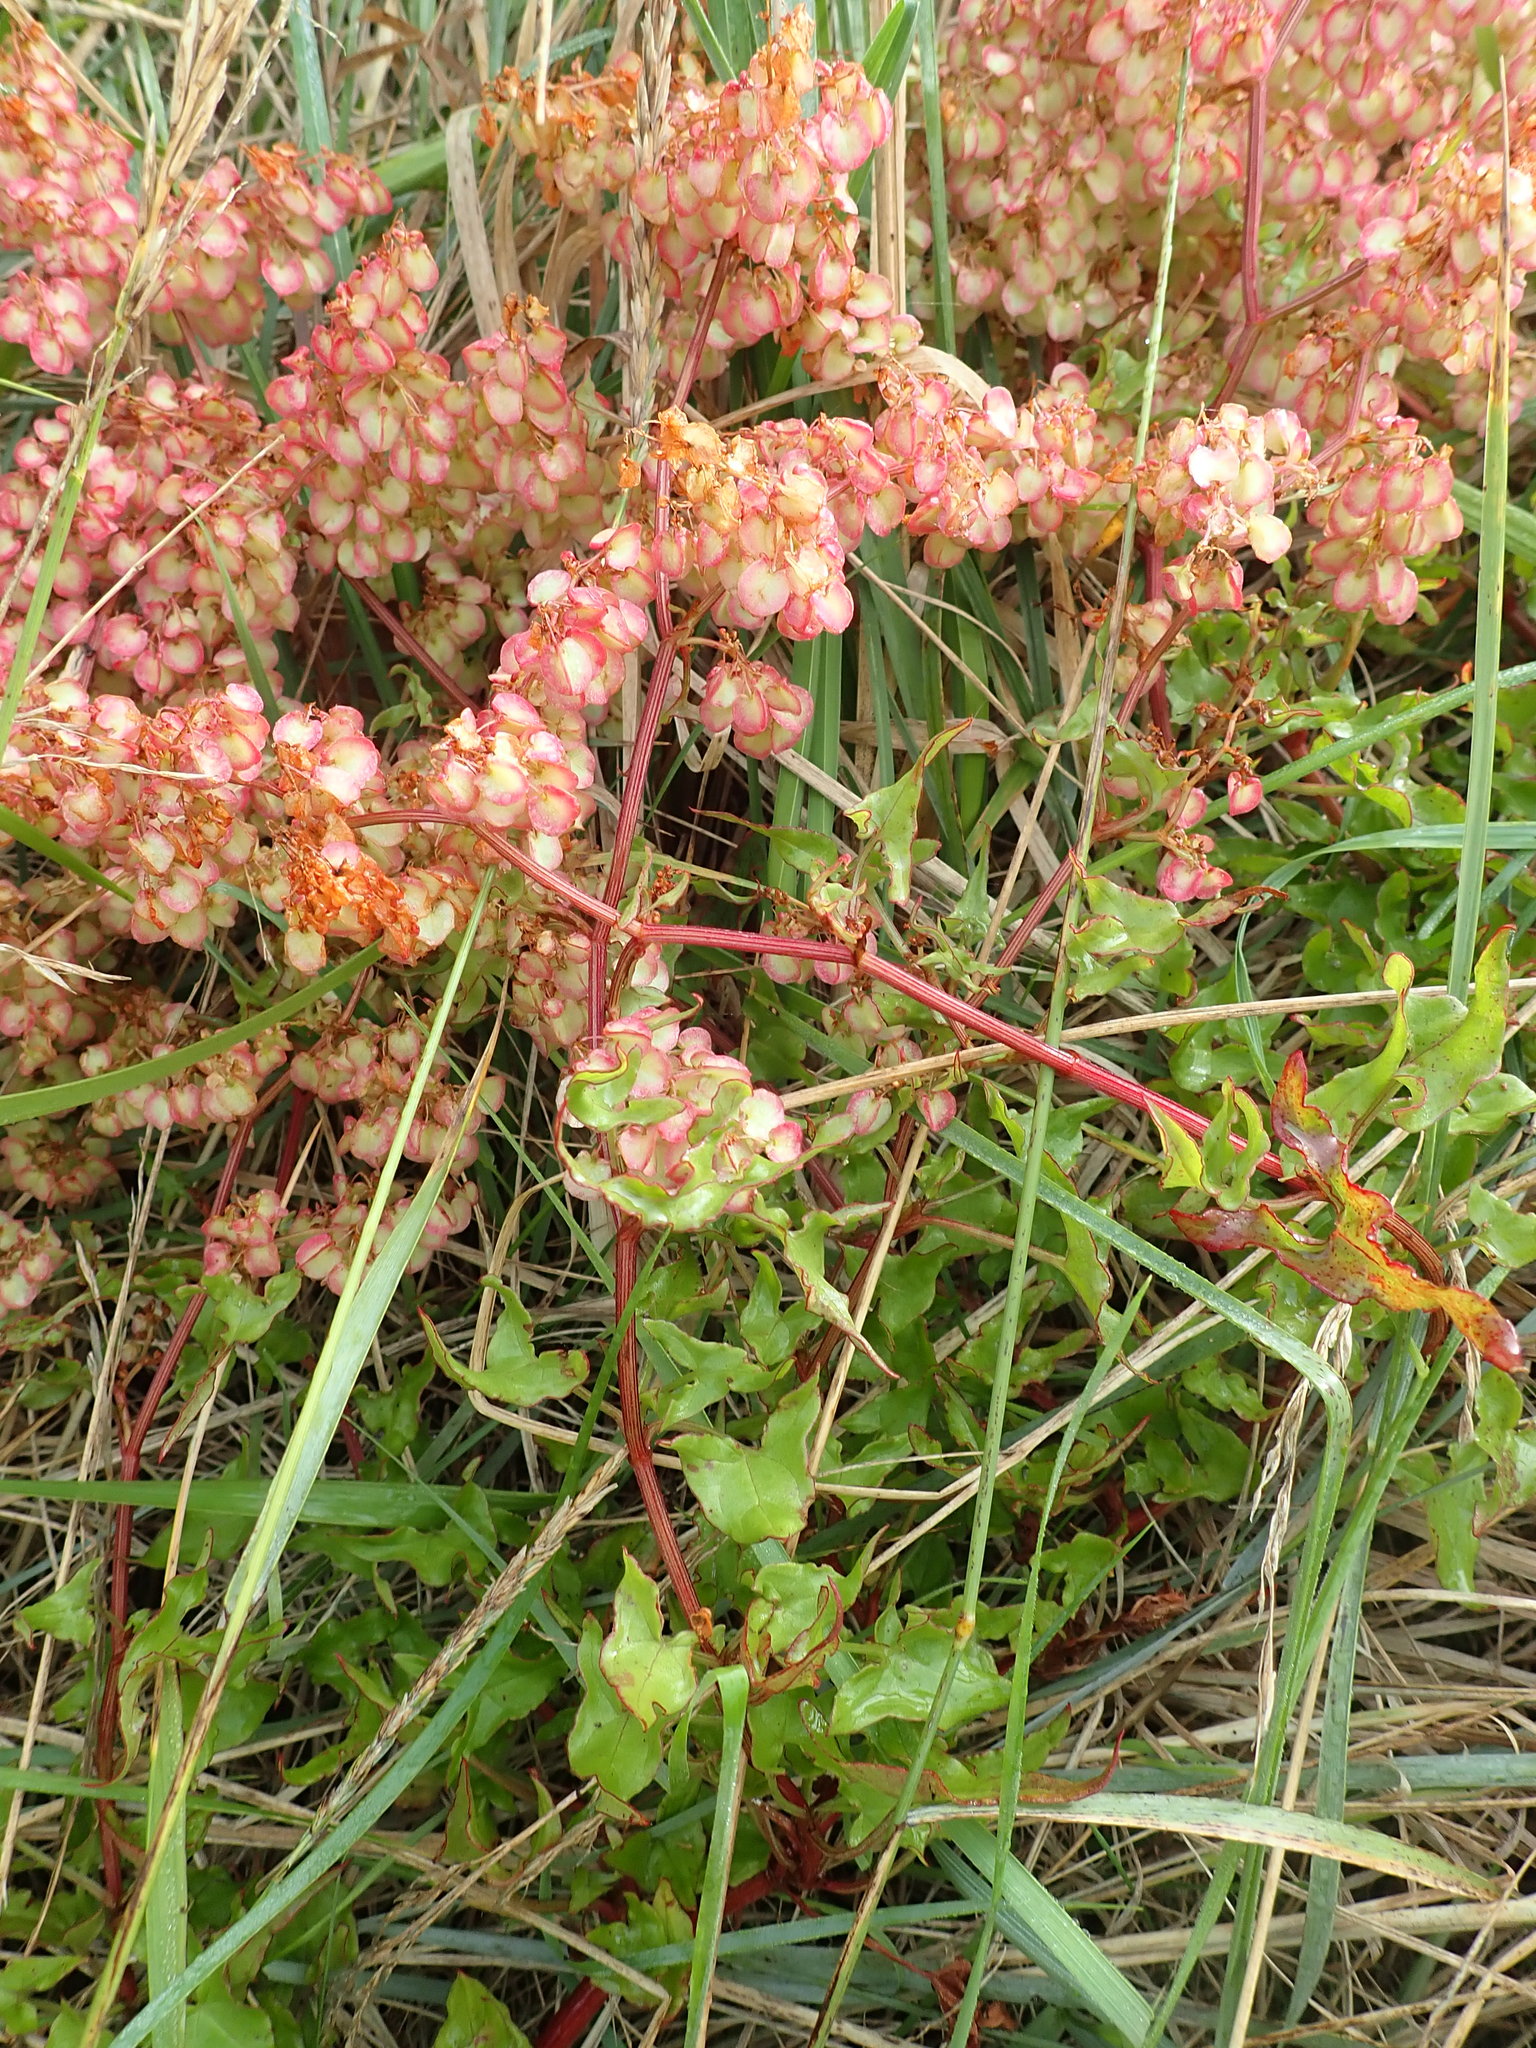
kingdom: Plantae
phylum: Tracheophyta
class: Magnoliopsida
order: Caryophyllales
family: Polygonaceae
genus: Rumex
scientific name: Rumex sagittatus
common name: Climbing dock
